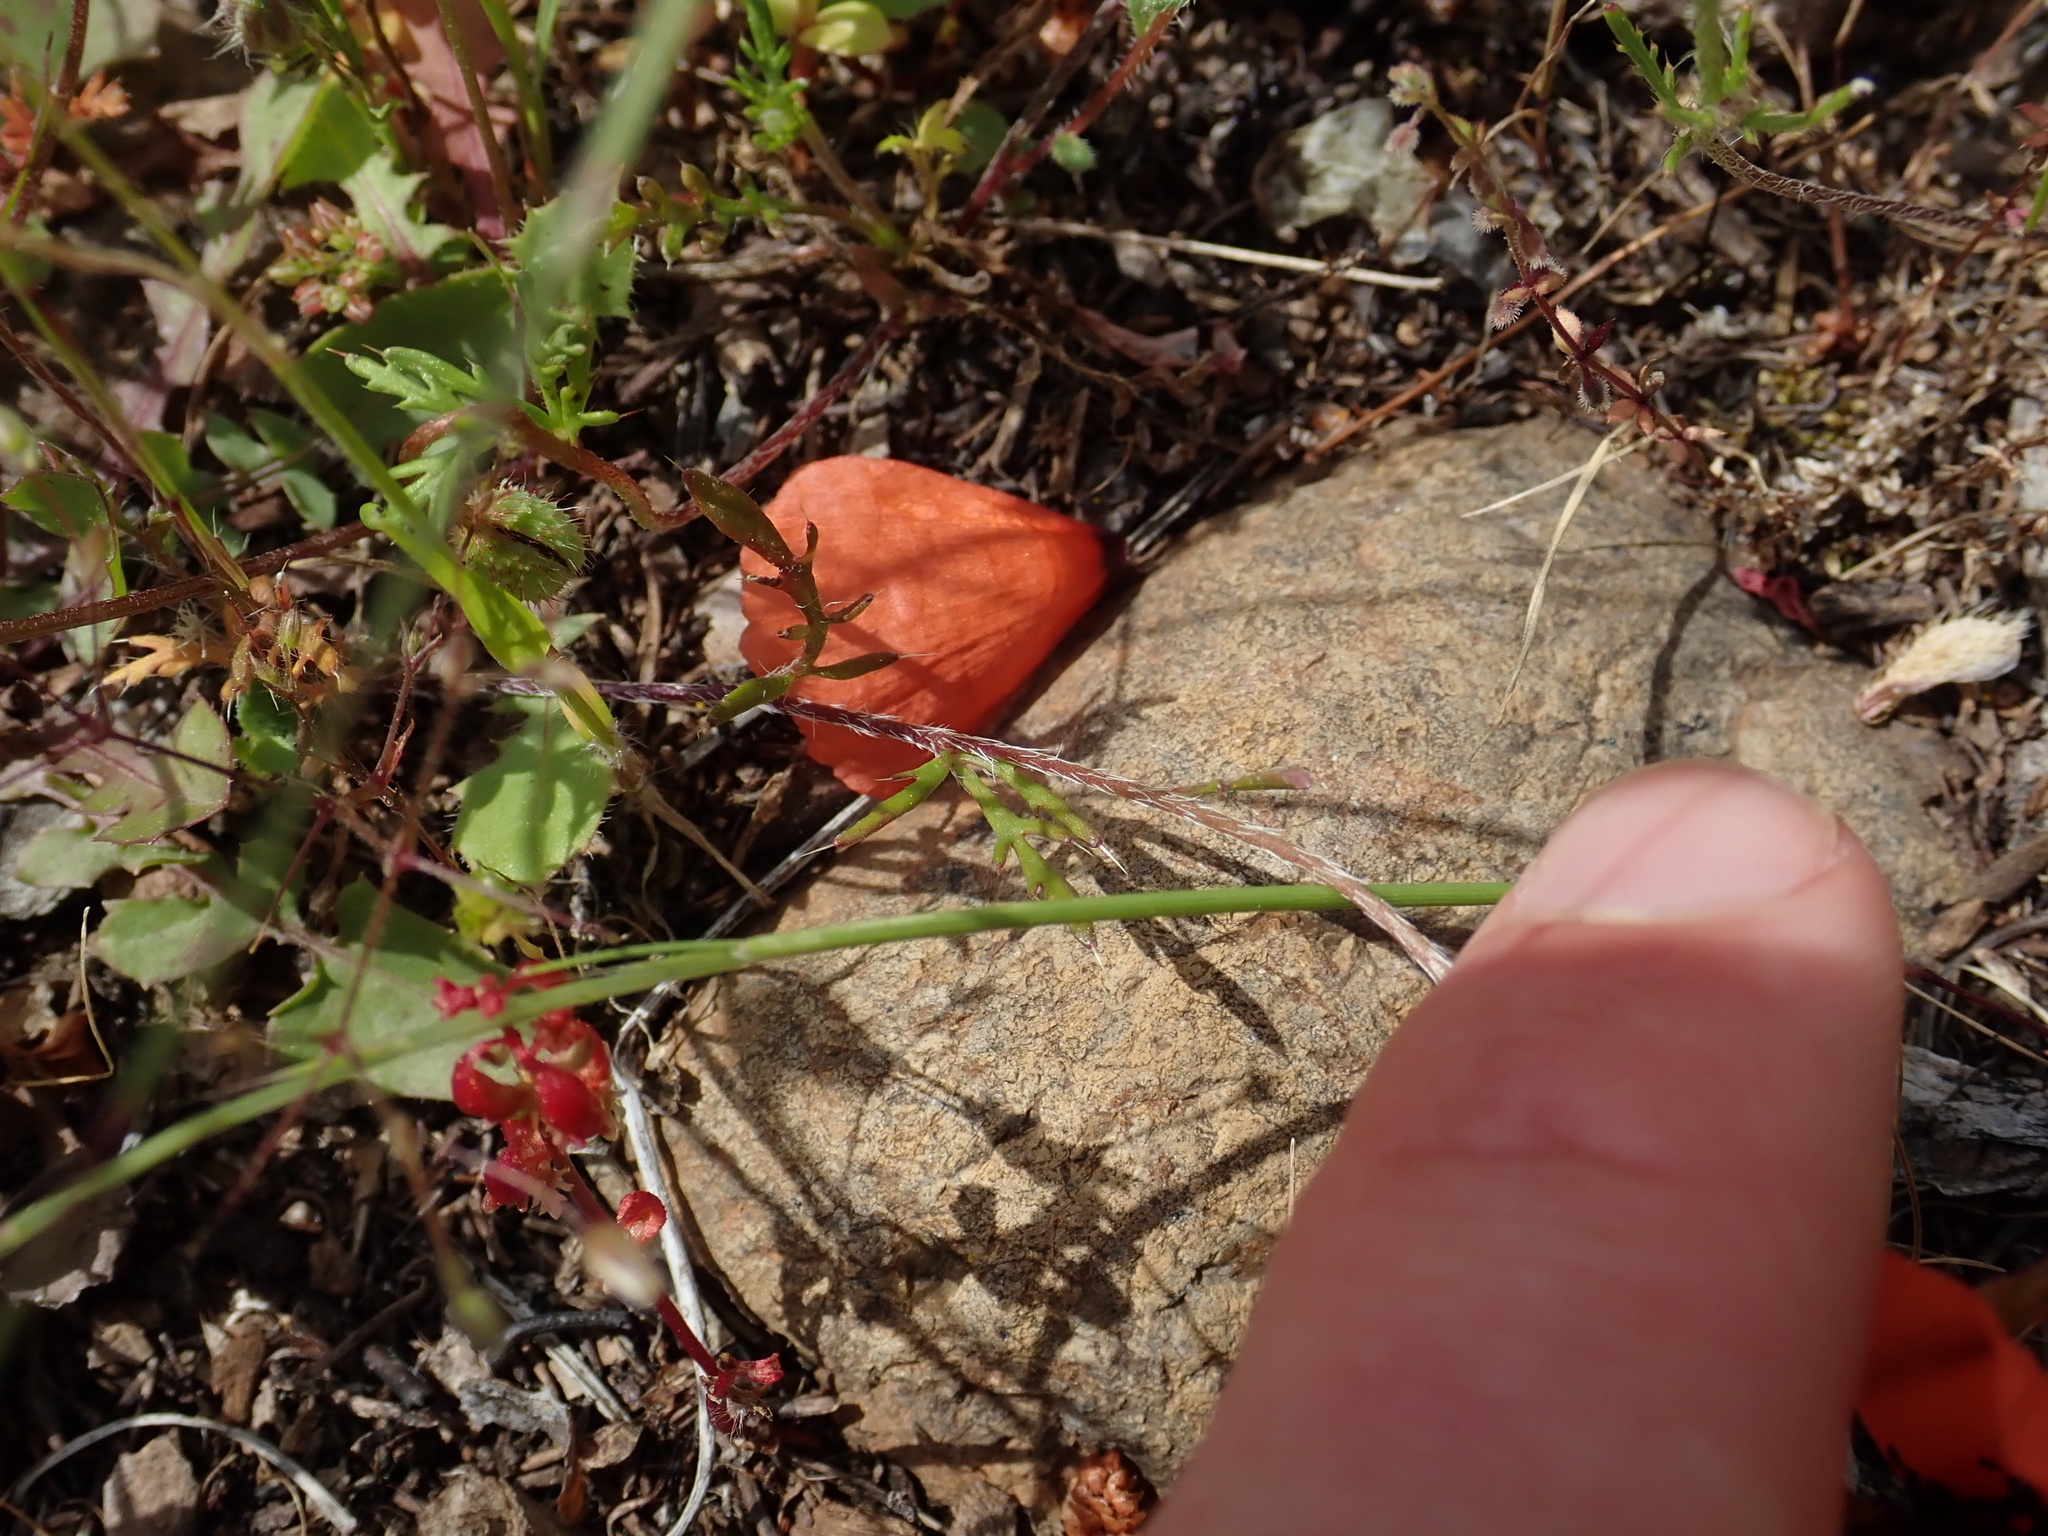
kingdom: Plantae
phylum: Tracheophyta
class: Magnoliopsida
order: Ranunculales
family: Papaveraceae
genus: Roemeria
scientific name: Roemeria nigrotincta
